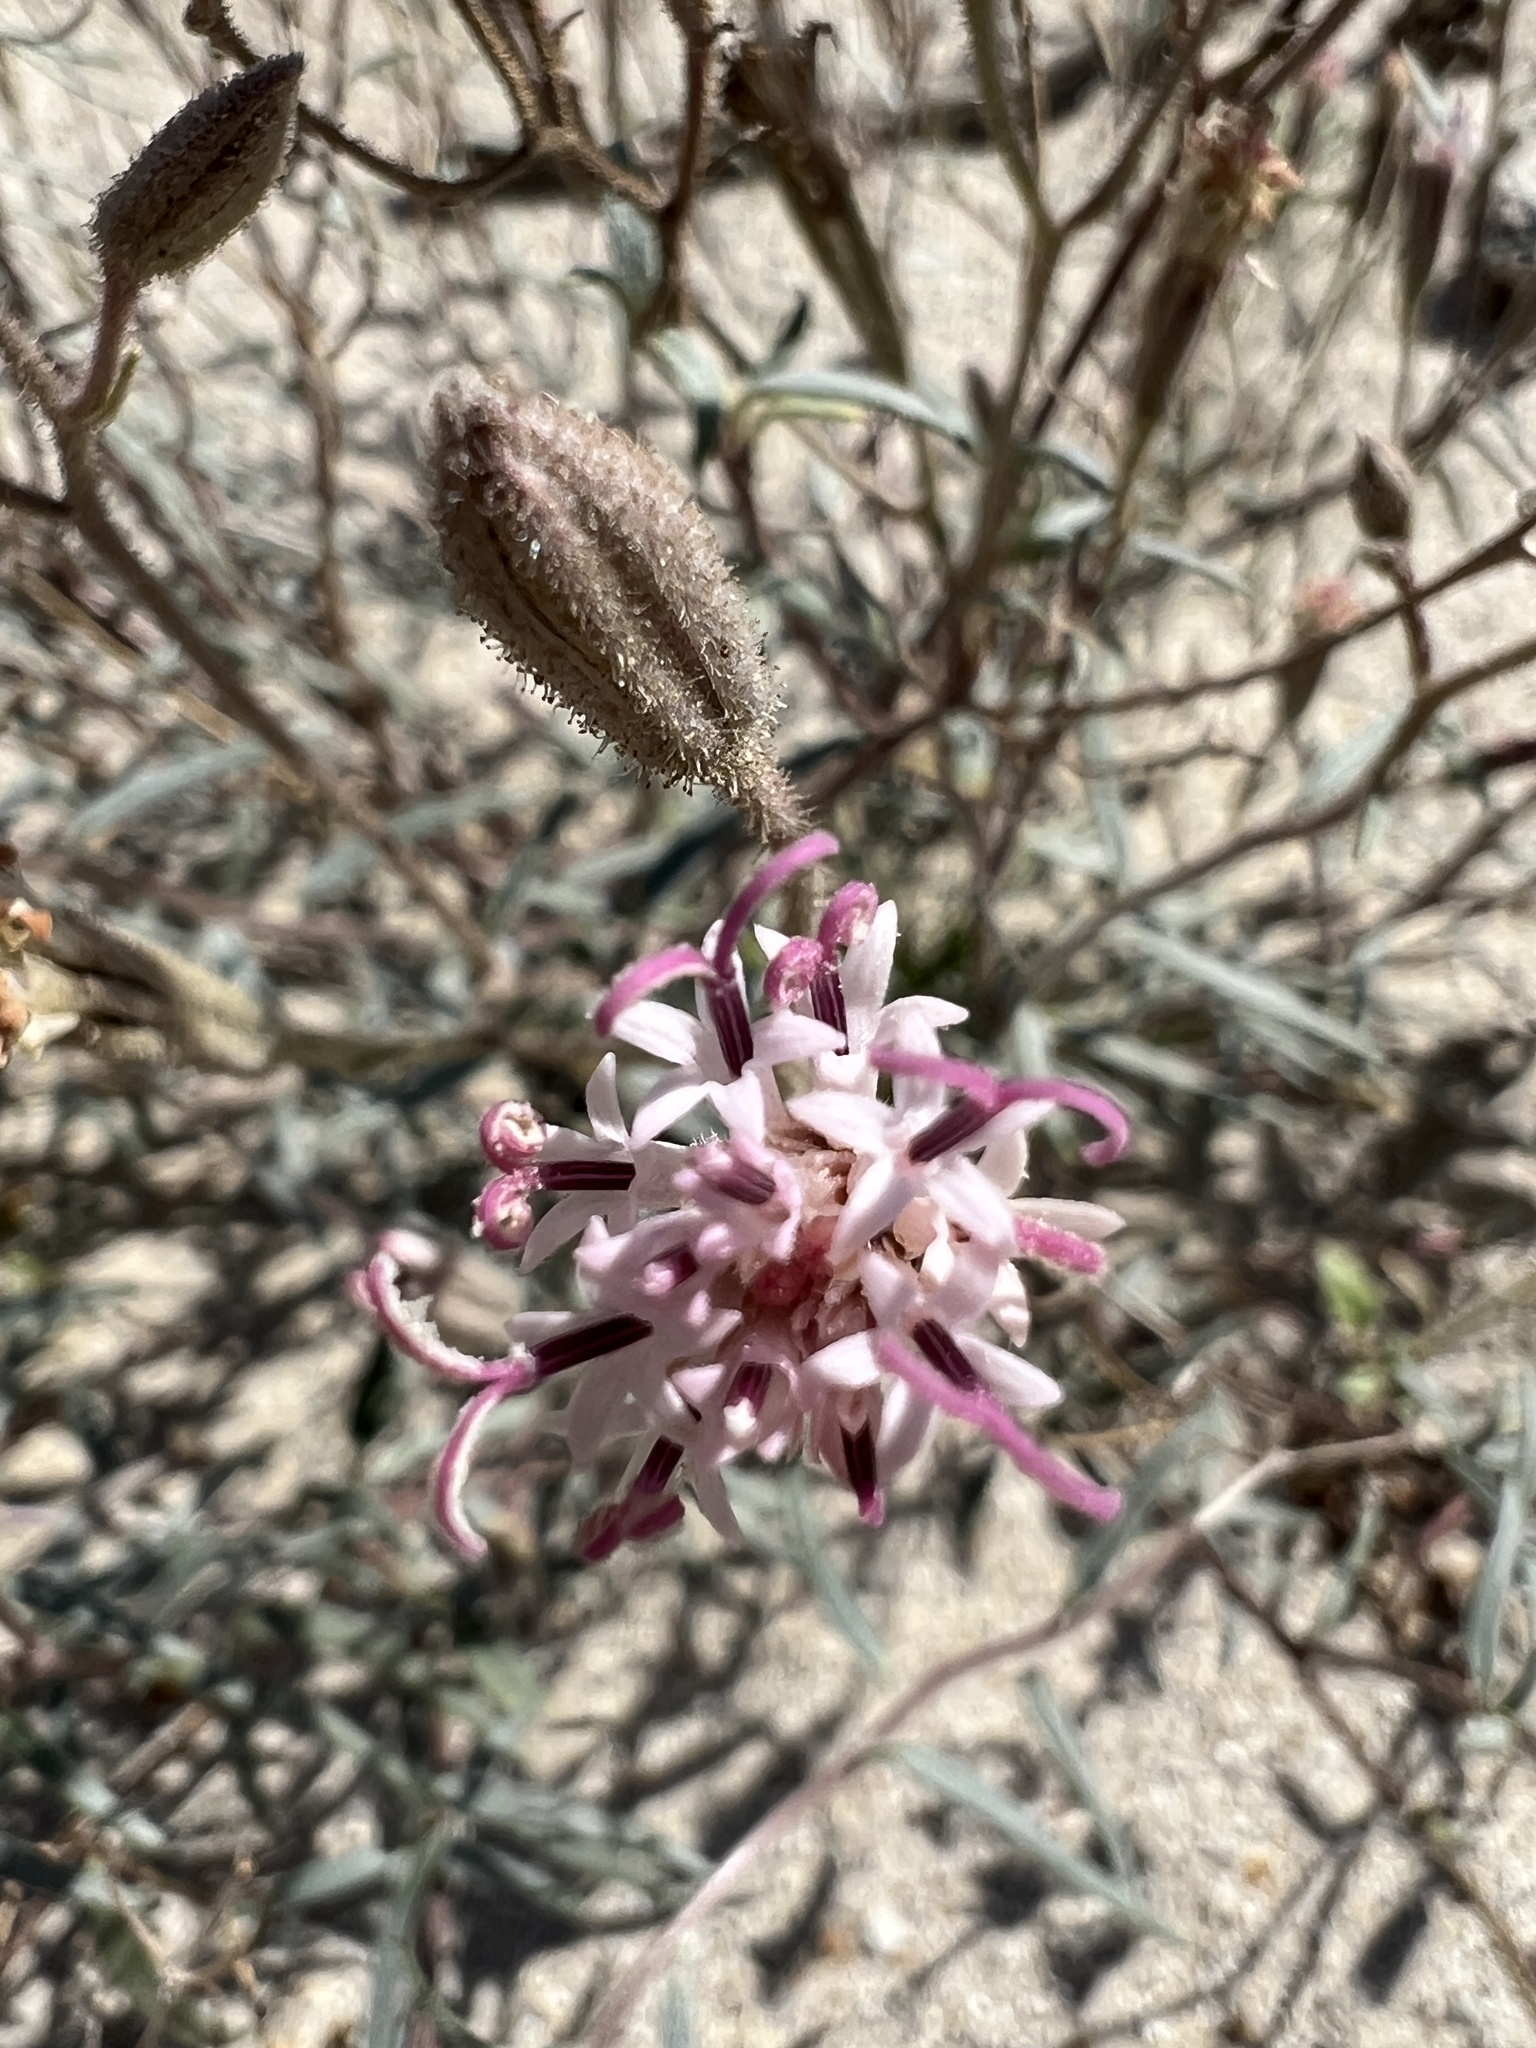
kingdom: Plantae
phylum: Tracheophyta
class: Magnoliopsida
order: Asterales
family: Asteraceae
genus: Palafoxia
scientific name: Palafoxia arida
